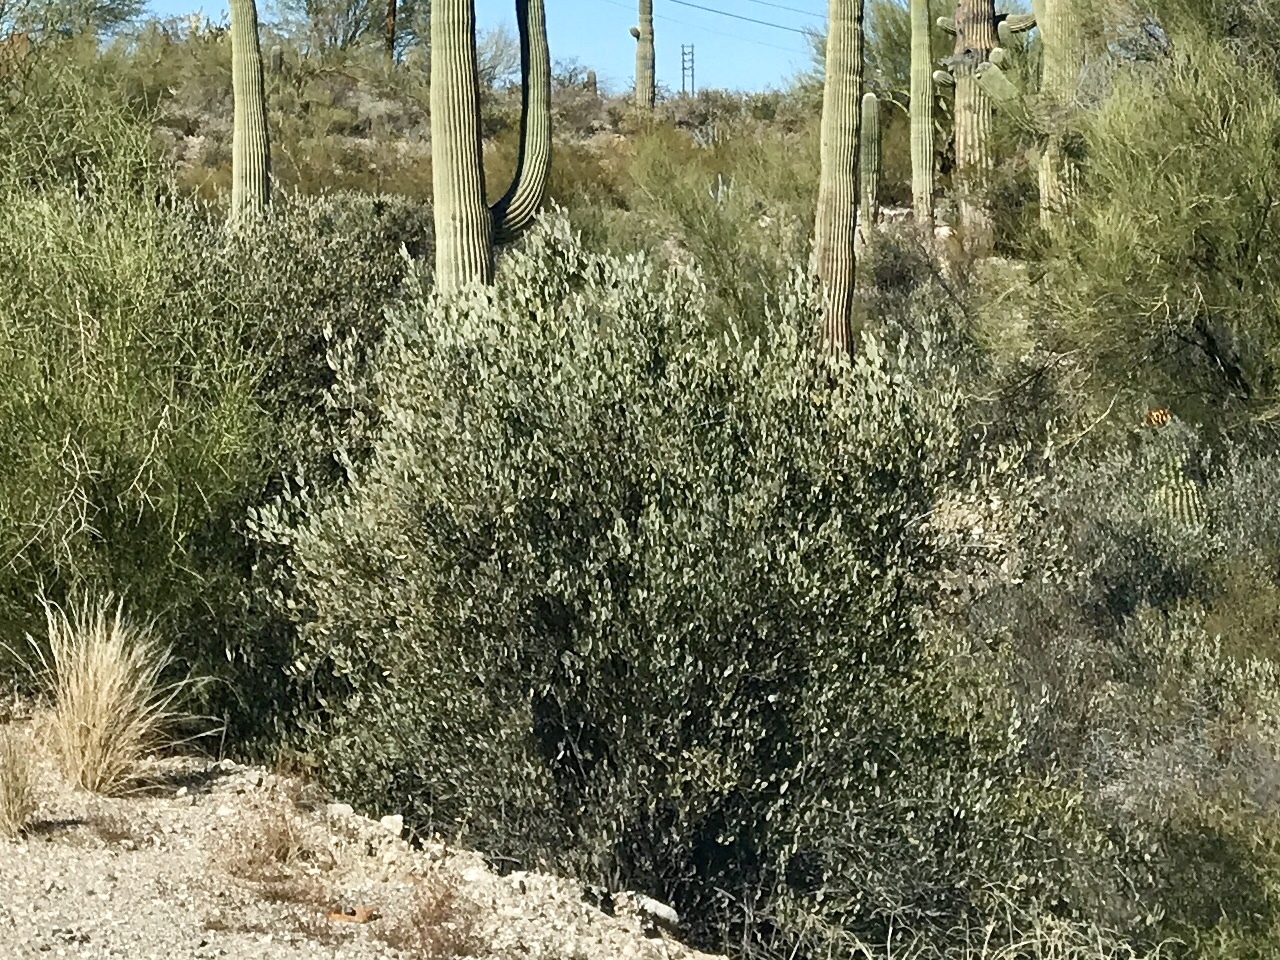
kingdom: Plantae
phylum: Tracheophyta
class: Magnoliopsida
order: Caryophyllales
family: Simmondsiaceae
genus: Simmondsia
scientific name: Simmondsia chinensis
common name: Jojoba
